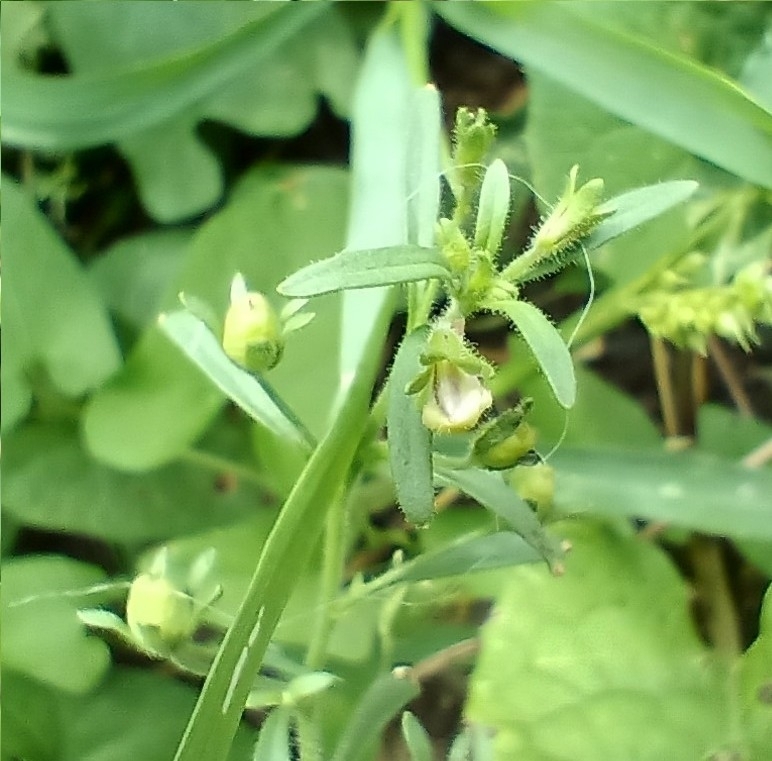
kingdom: Plantae
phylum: Tracheophyta
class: Magnoliopsida
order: Lamiales
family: Plantaginaceae
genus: Chaenorhinum
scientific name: Chaenorhinum minus
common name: Dwarf snapdragon
